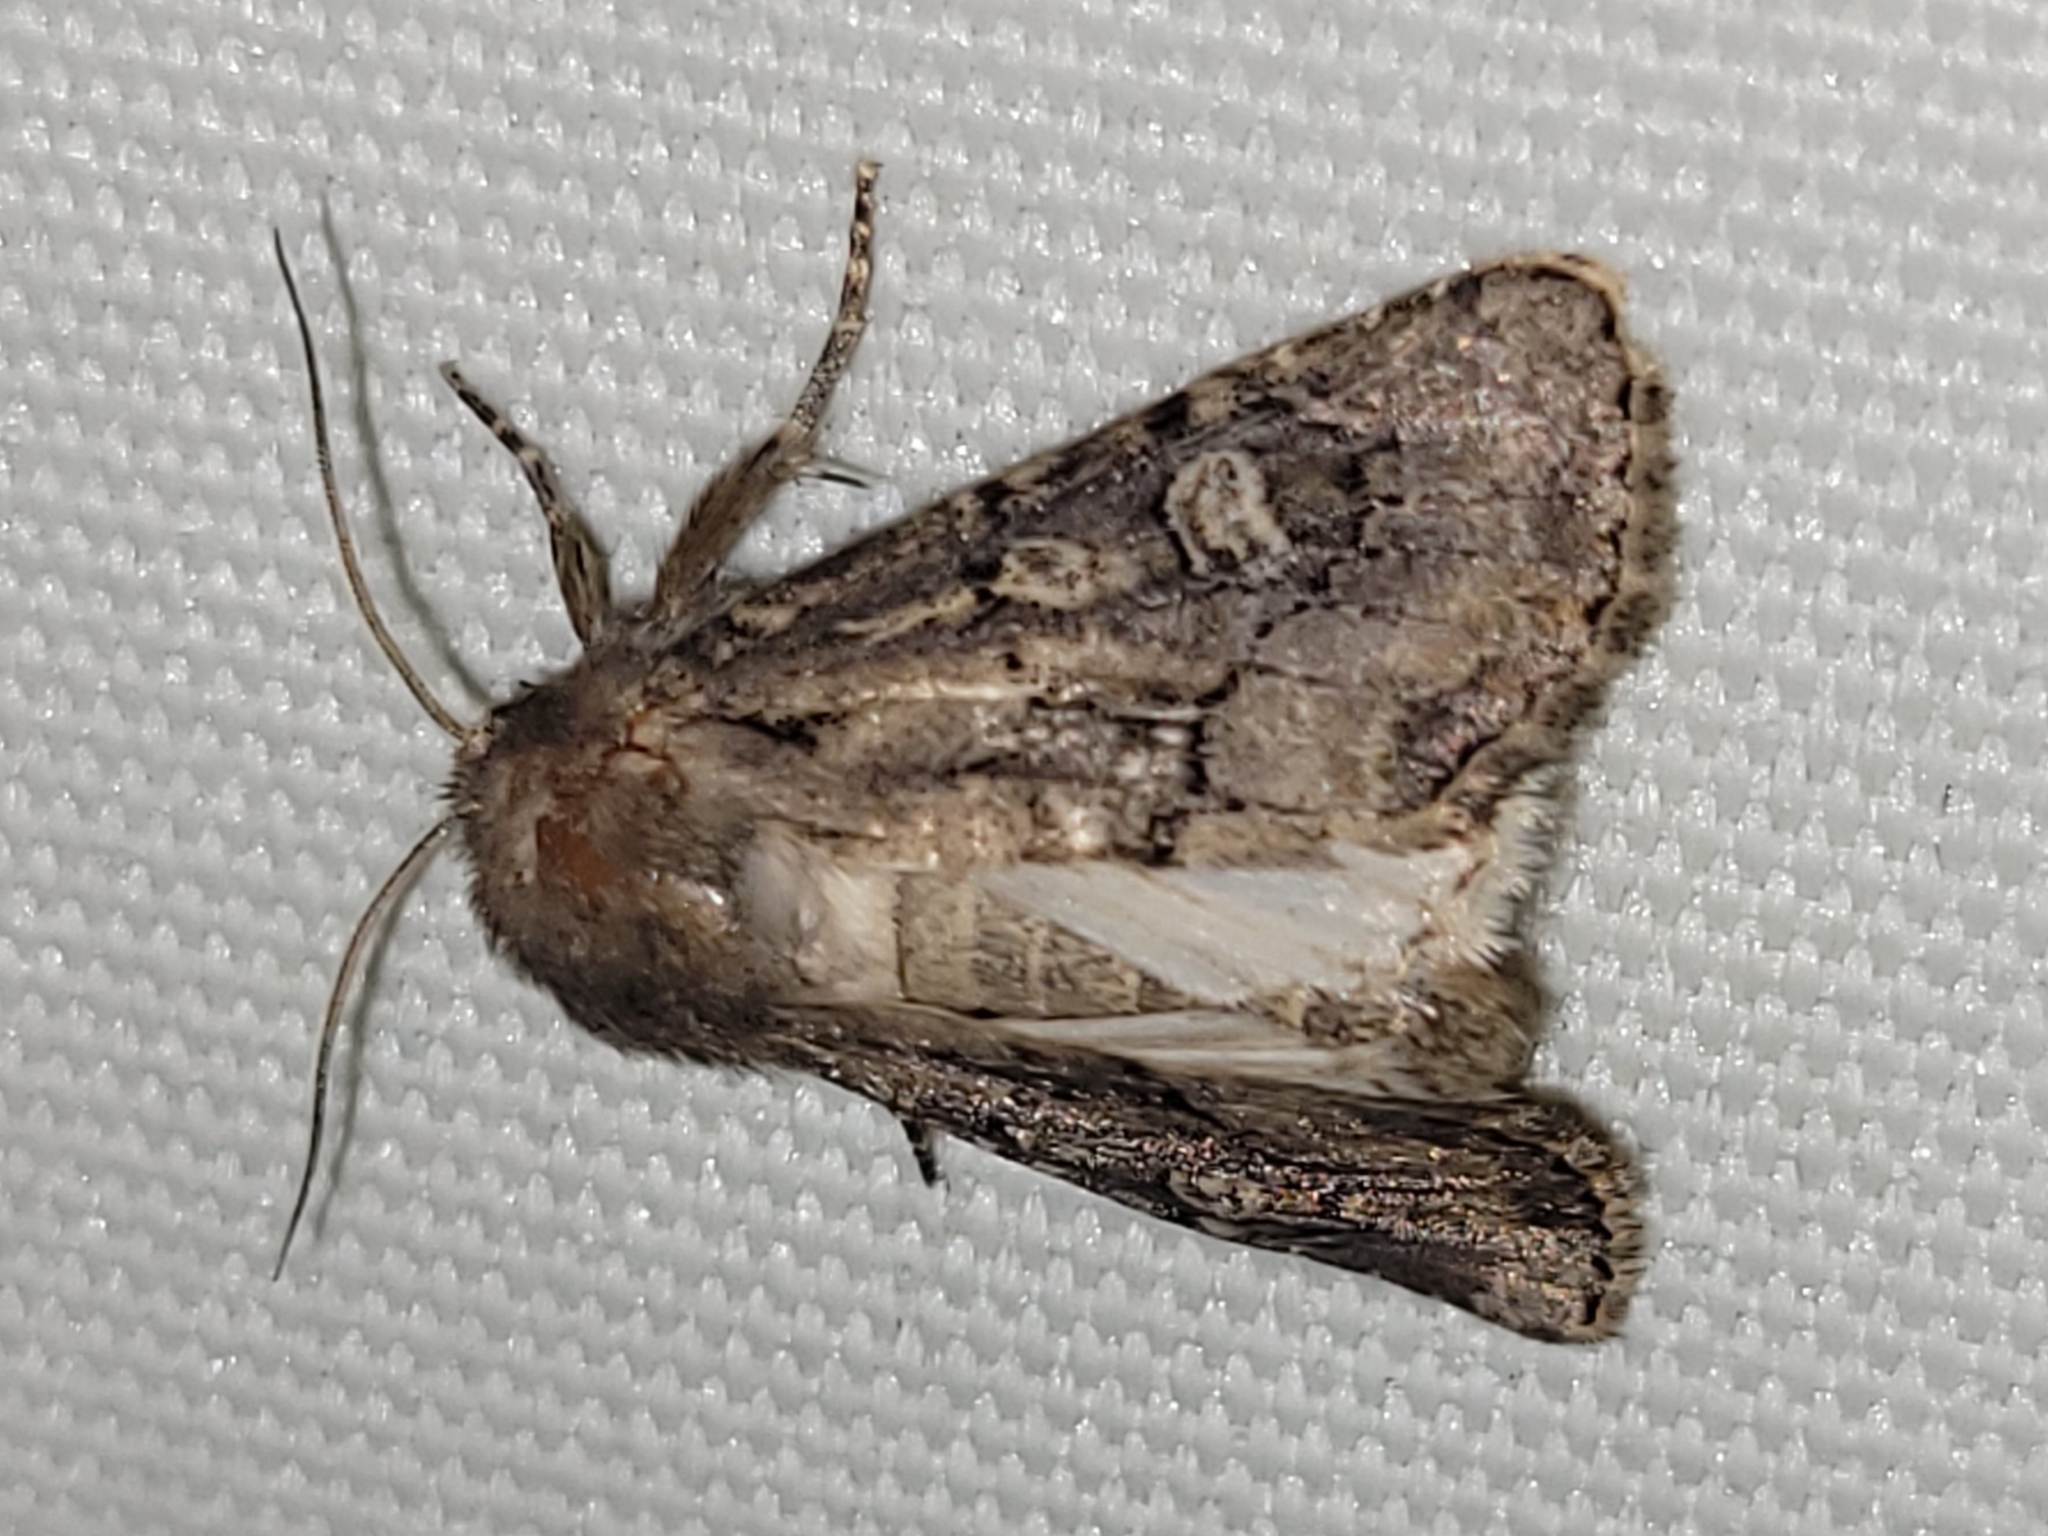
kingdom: Animalia
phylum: Arthropoda
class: Insecta
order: Lepidoptera
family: Noctuidae
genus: Luperina
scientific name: Luperina testacea
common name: Flounced rustic
